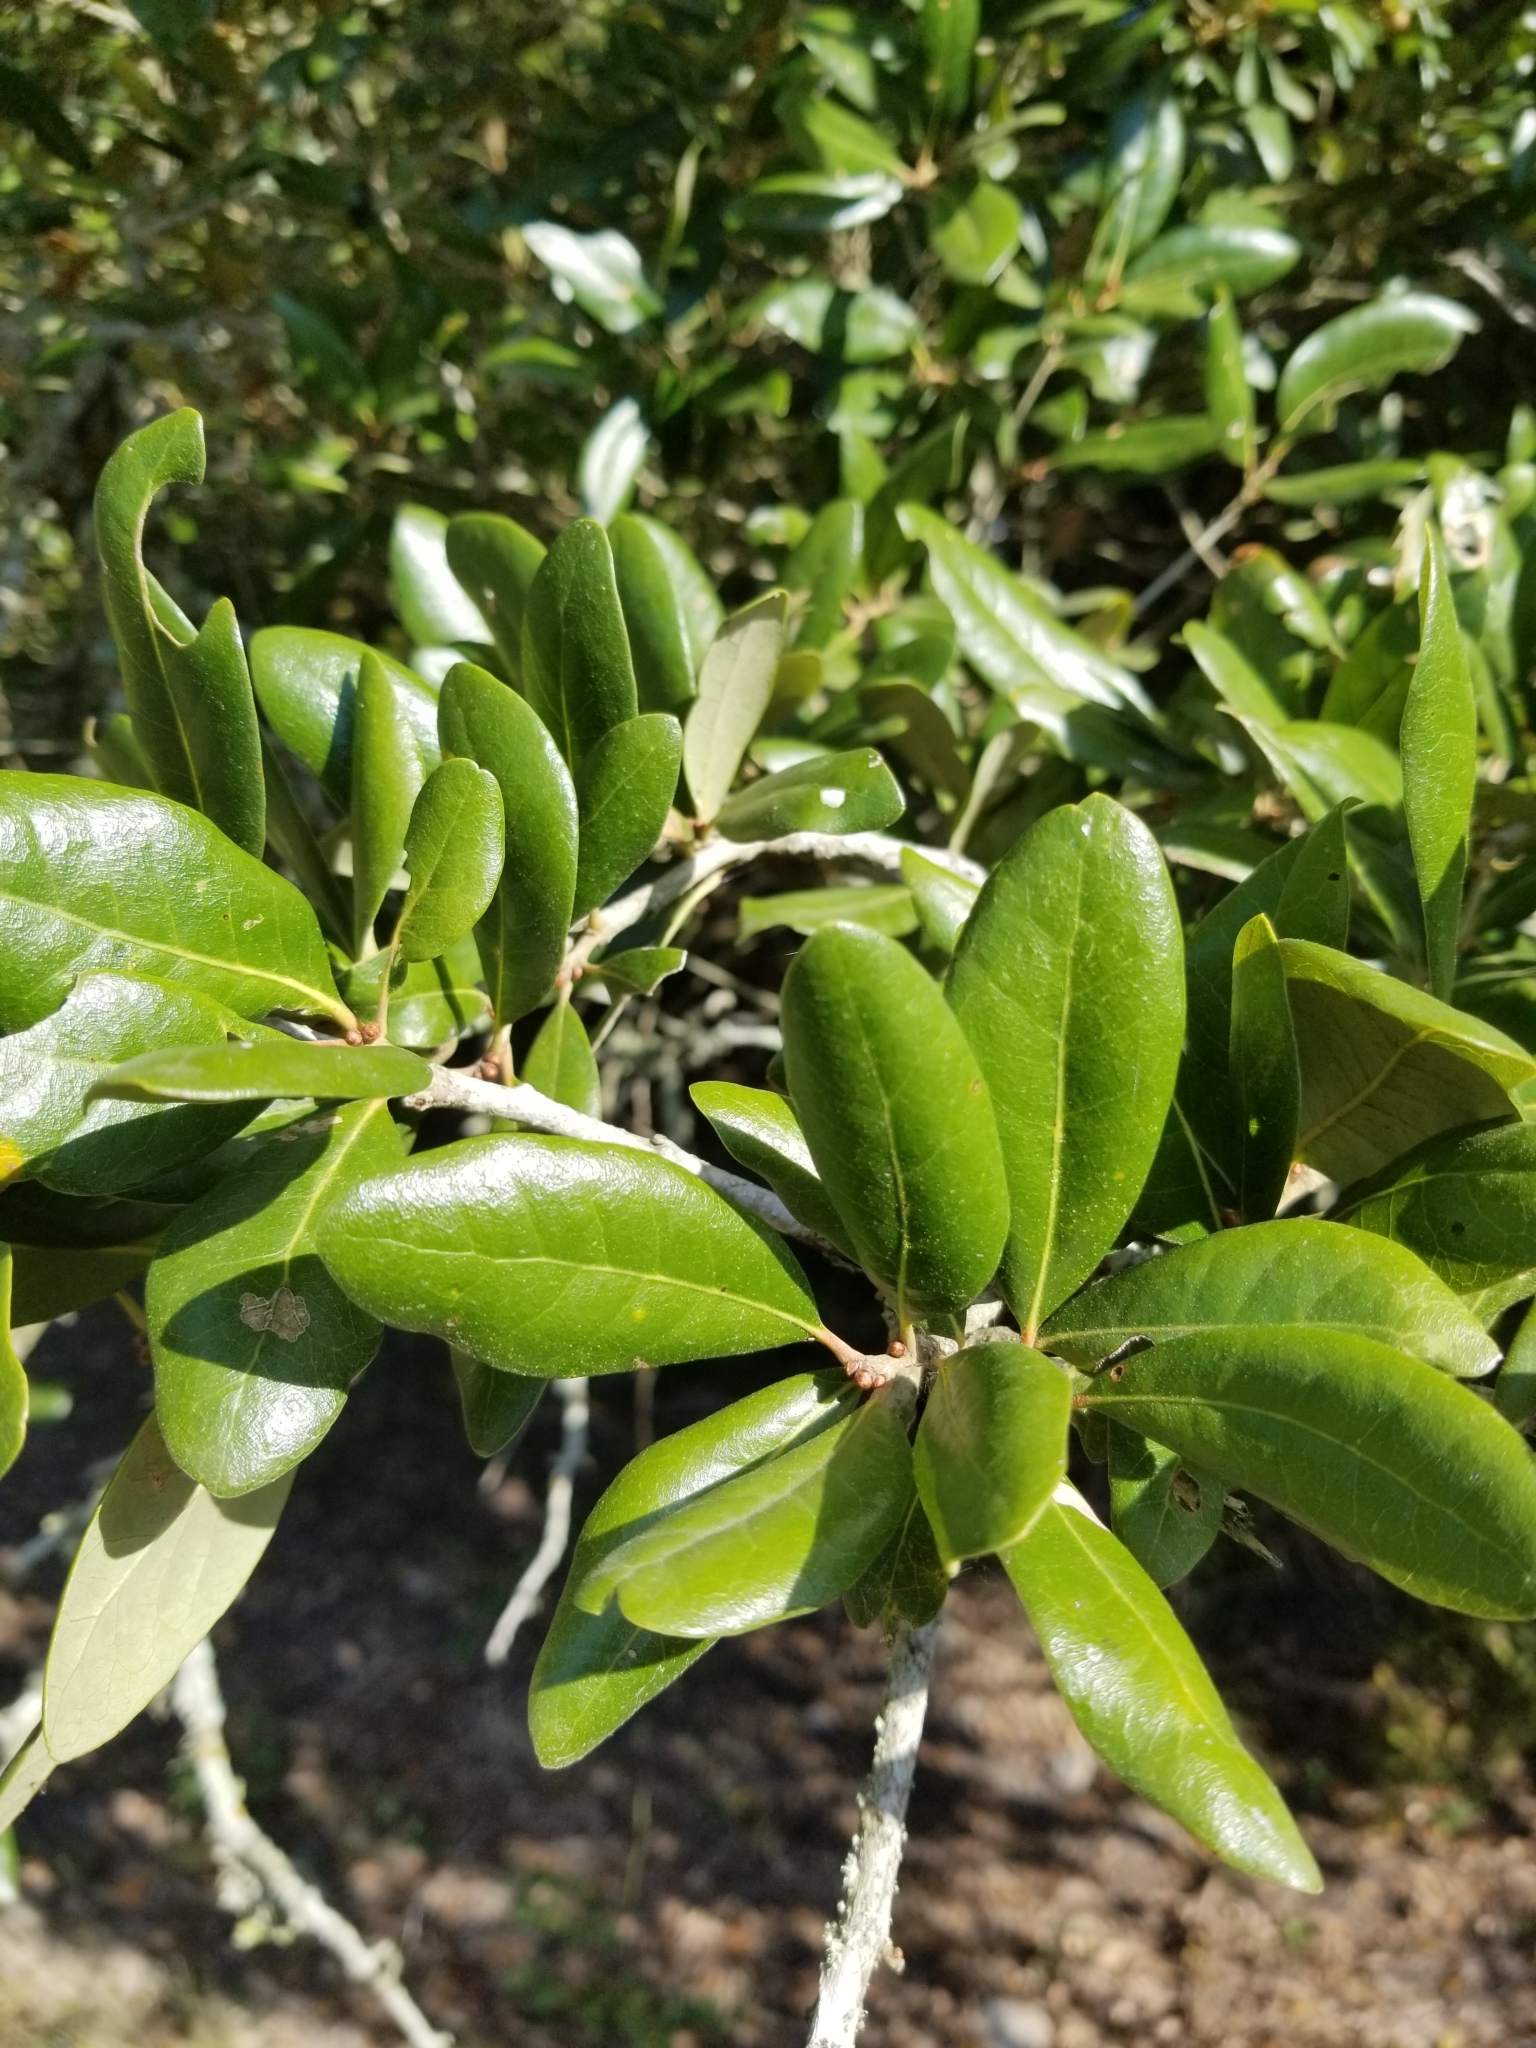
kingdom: Plantae
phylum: Tracheophyta
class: Magnoliopsida
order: Fagales
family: Fagaceae
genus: Quercus
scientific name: Quercus virginiana
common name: Southern live oak
